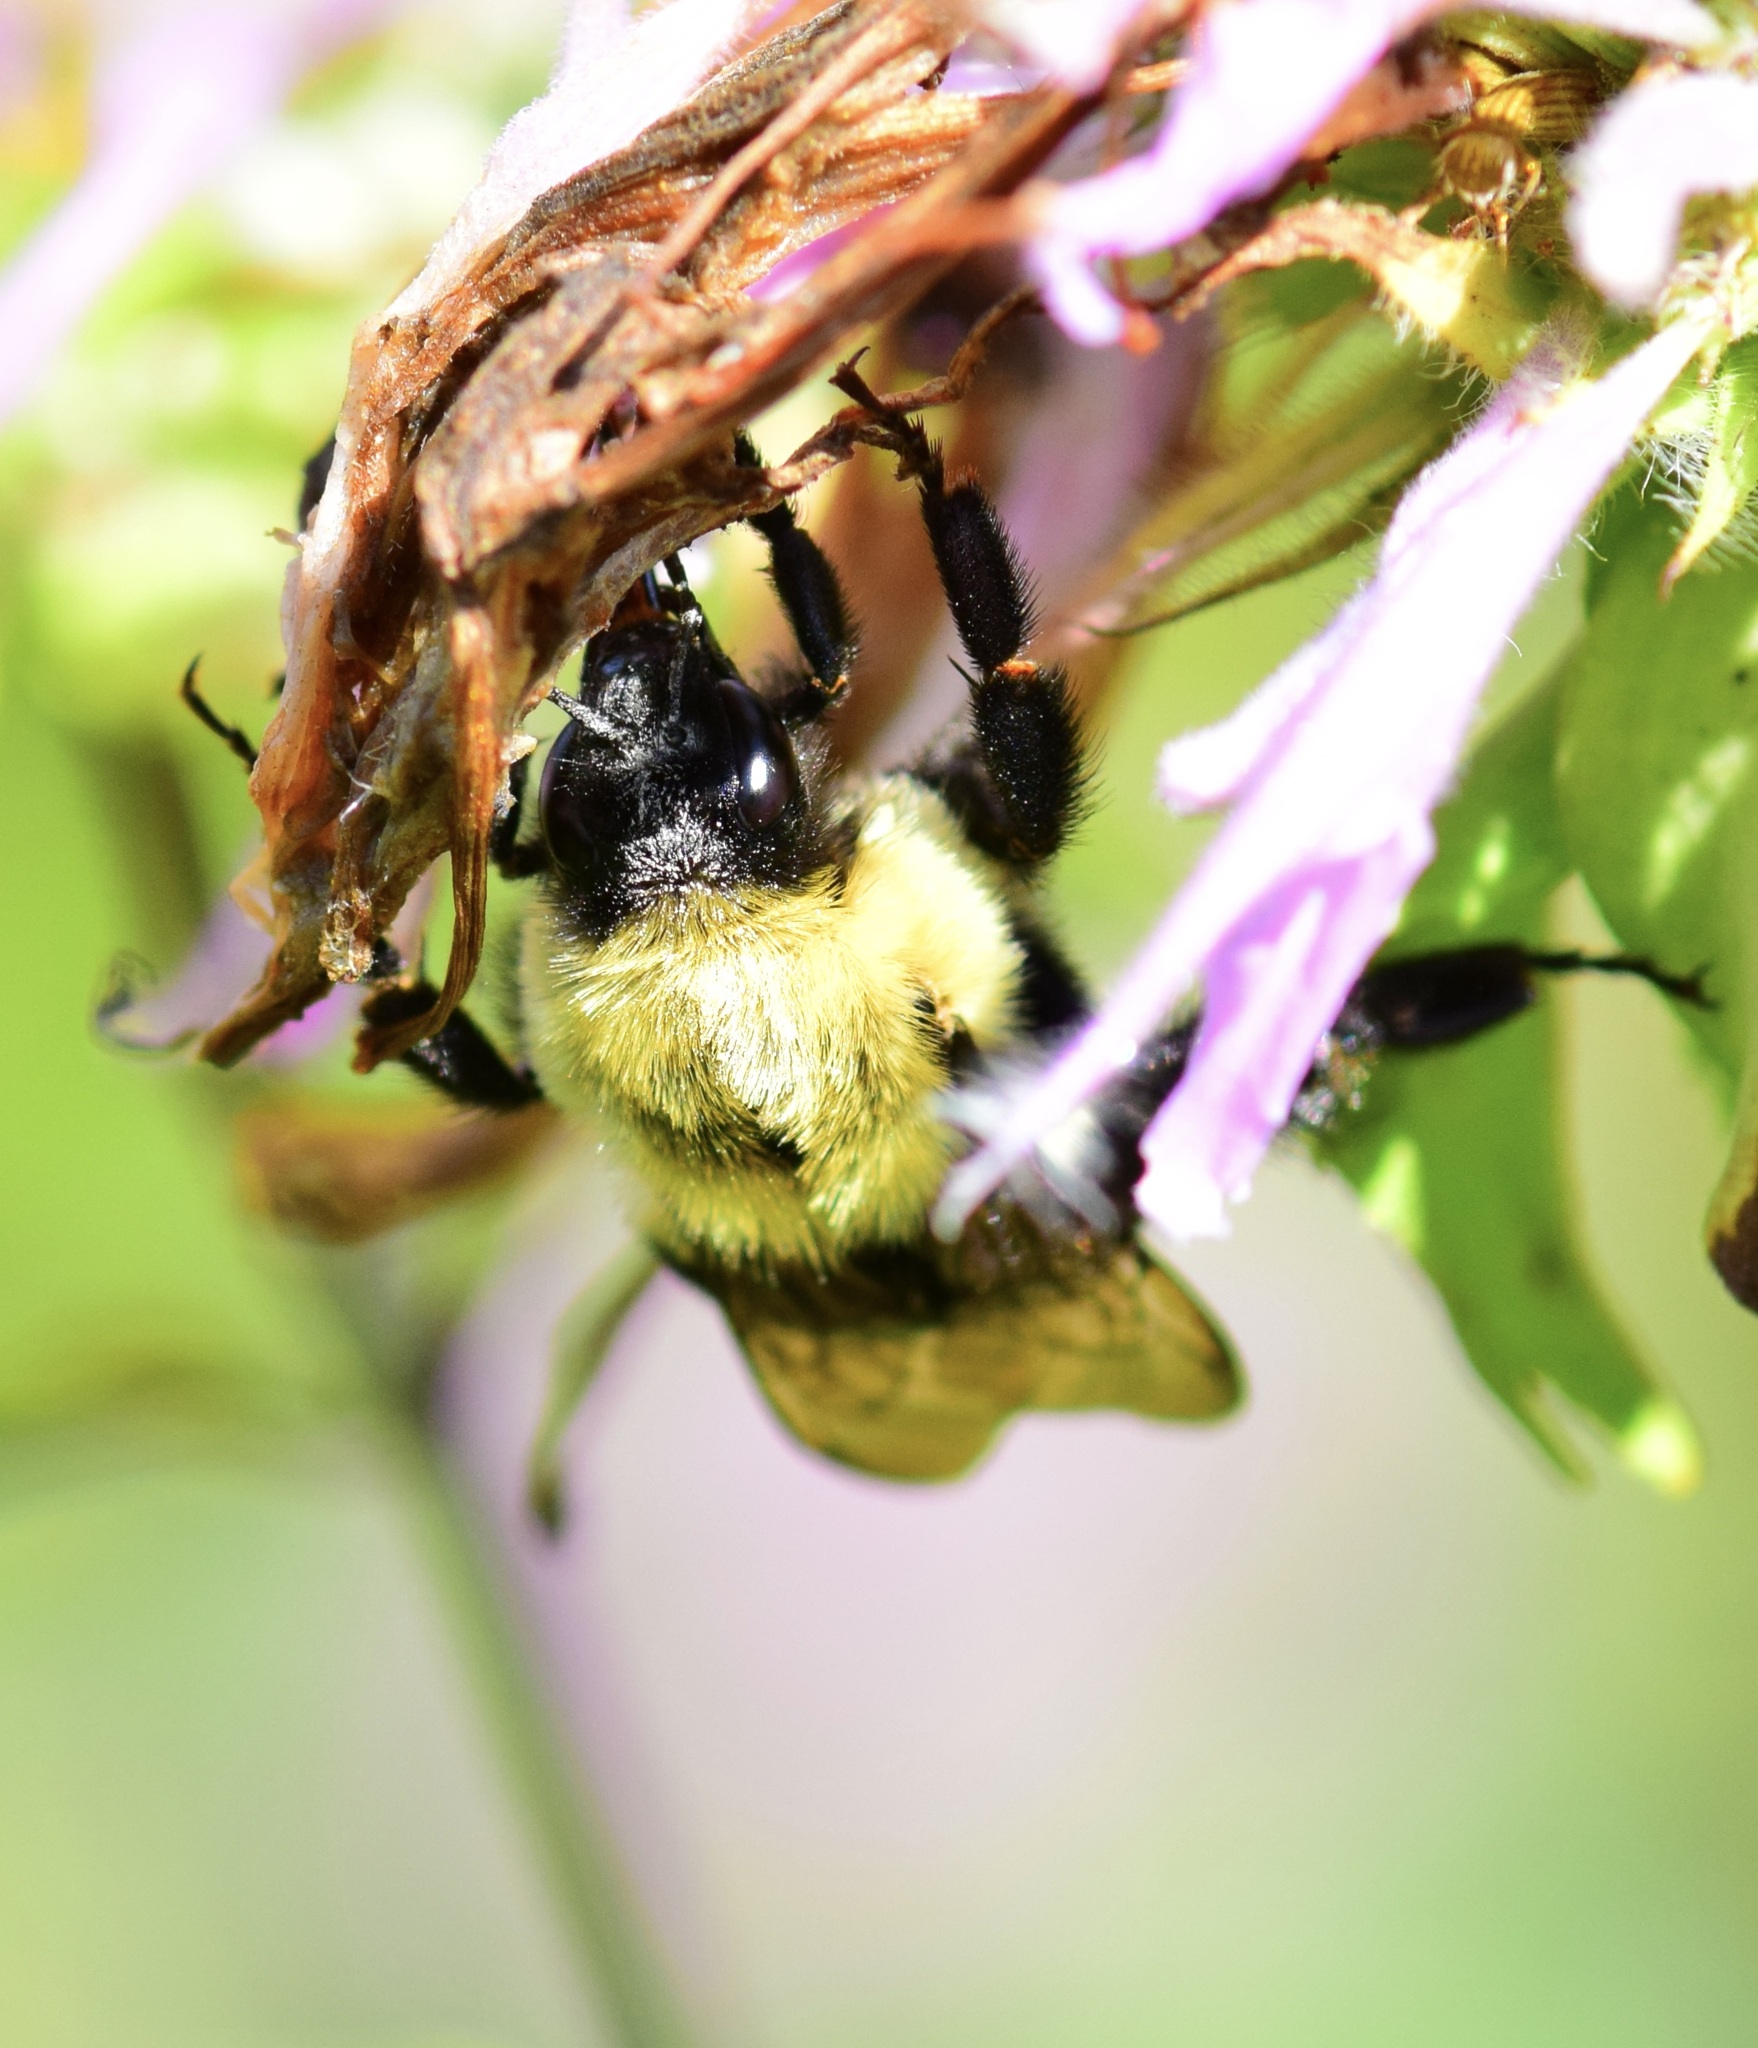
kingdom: Animalia
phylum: Arthropoda
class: Insecta
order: Hymenoptera
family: Apidae
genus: Bombus
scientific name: Bombus impatiens
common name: Common eastern bumble bee
